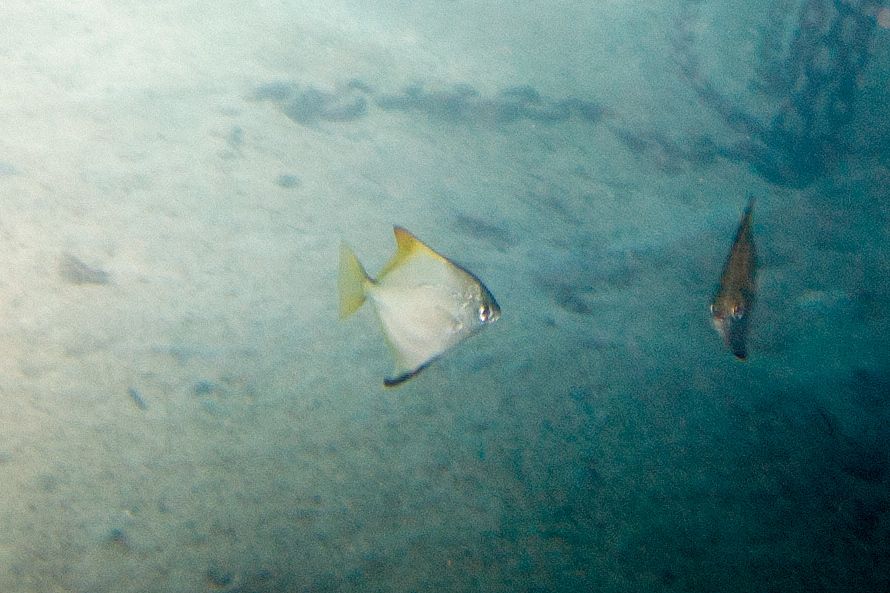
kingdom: Animalia
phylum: Chordata
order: Perciformes
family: Monodactylidae
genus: Monodactylus
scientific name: Monodactylus argenteus
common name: Silver moony
